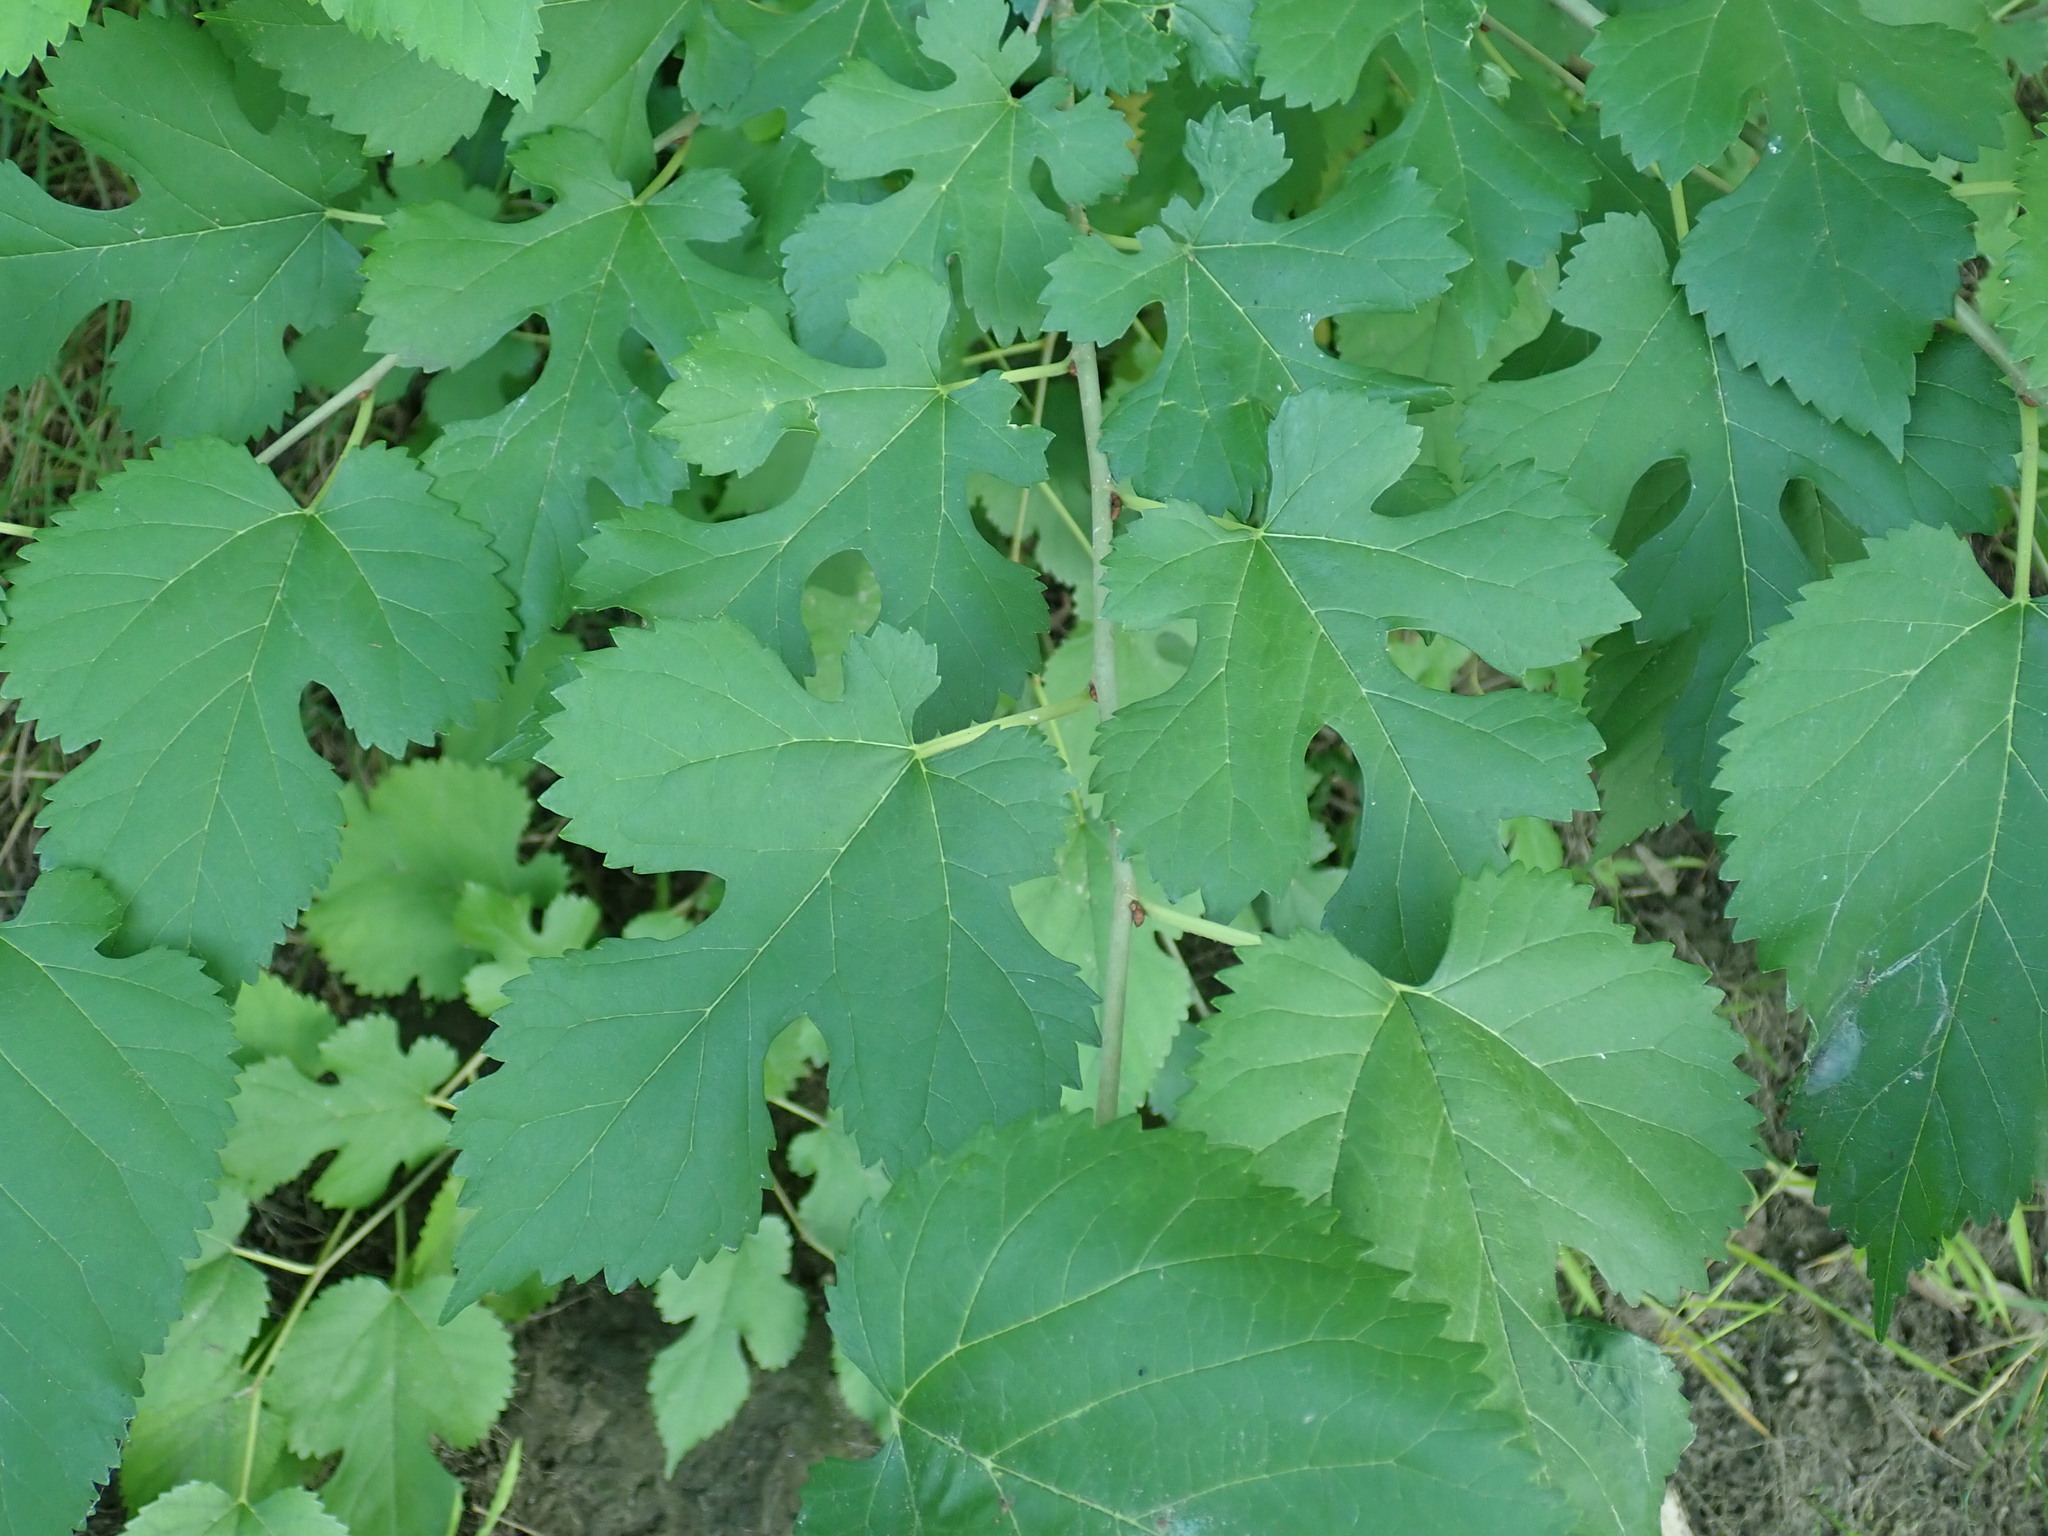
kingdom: Plantae
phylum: Tracheophyta
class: Magnoliopsida
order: Rosales
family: Moraceae
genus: Morus
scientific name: Morus
